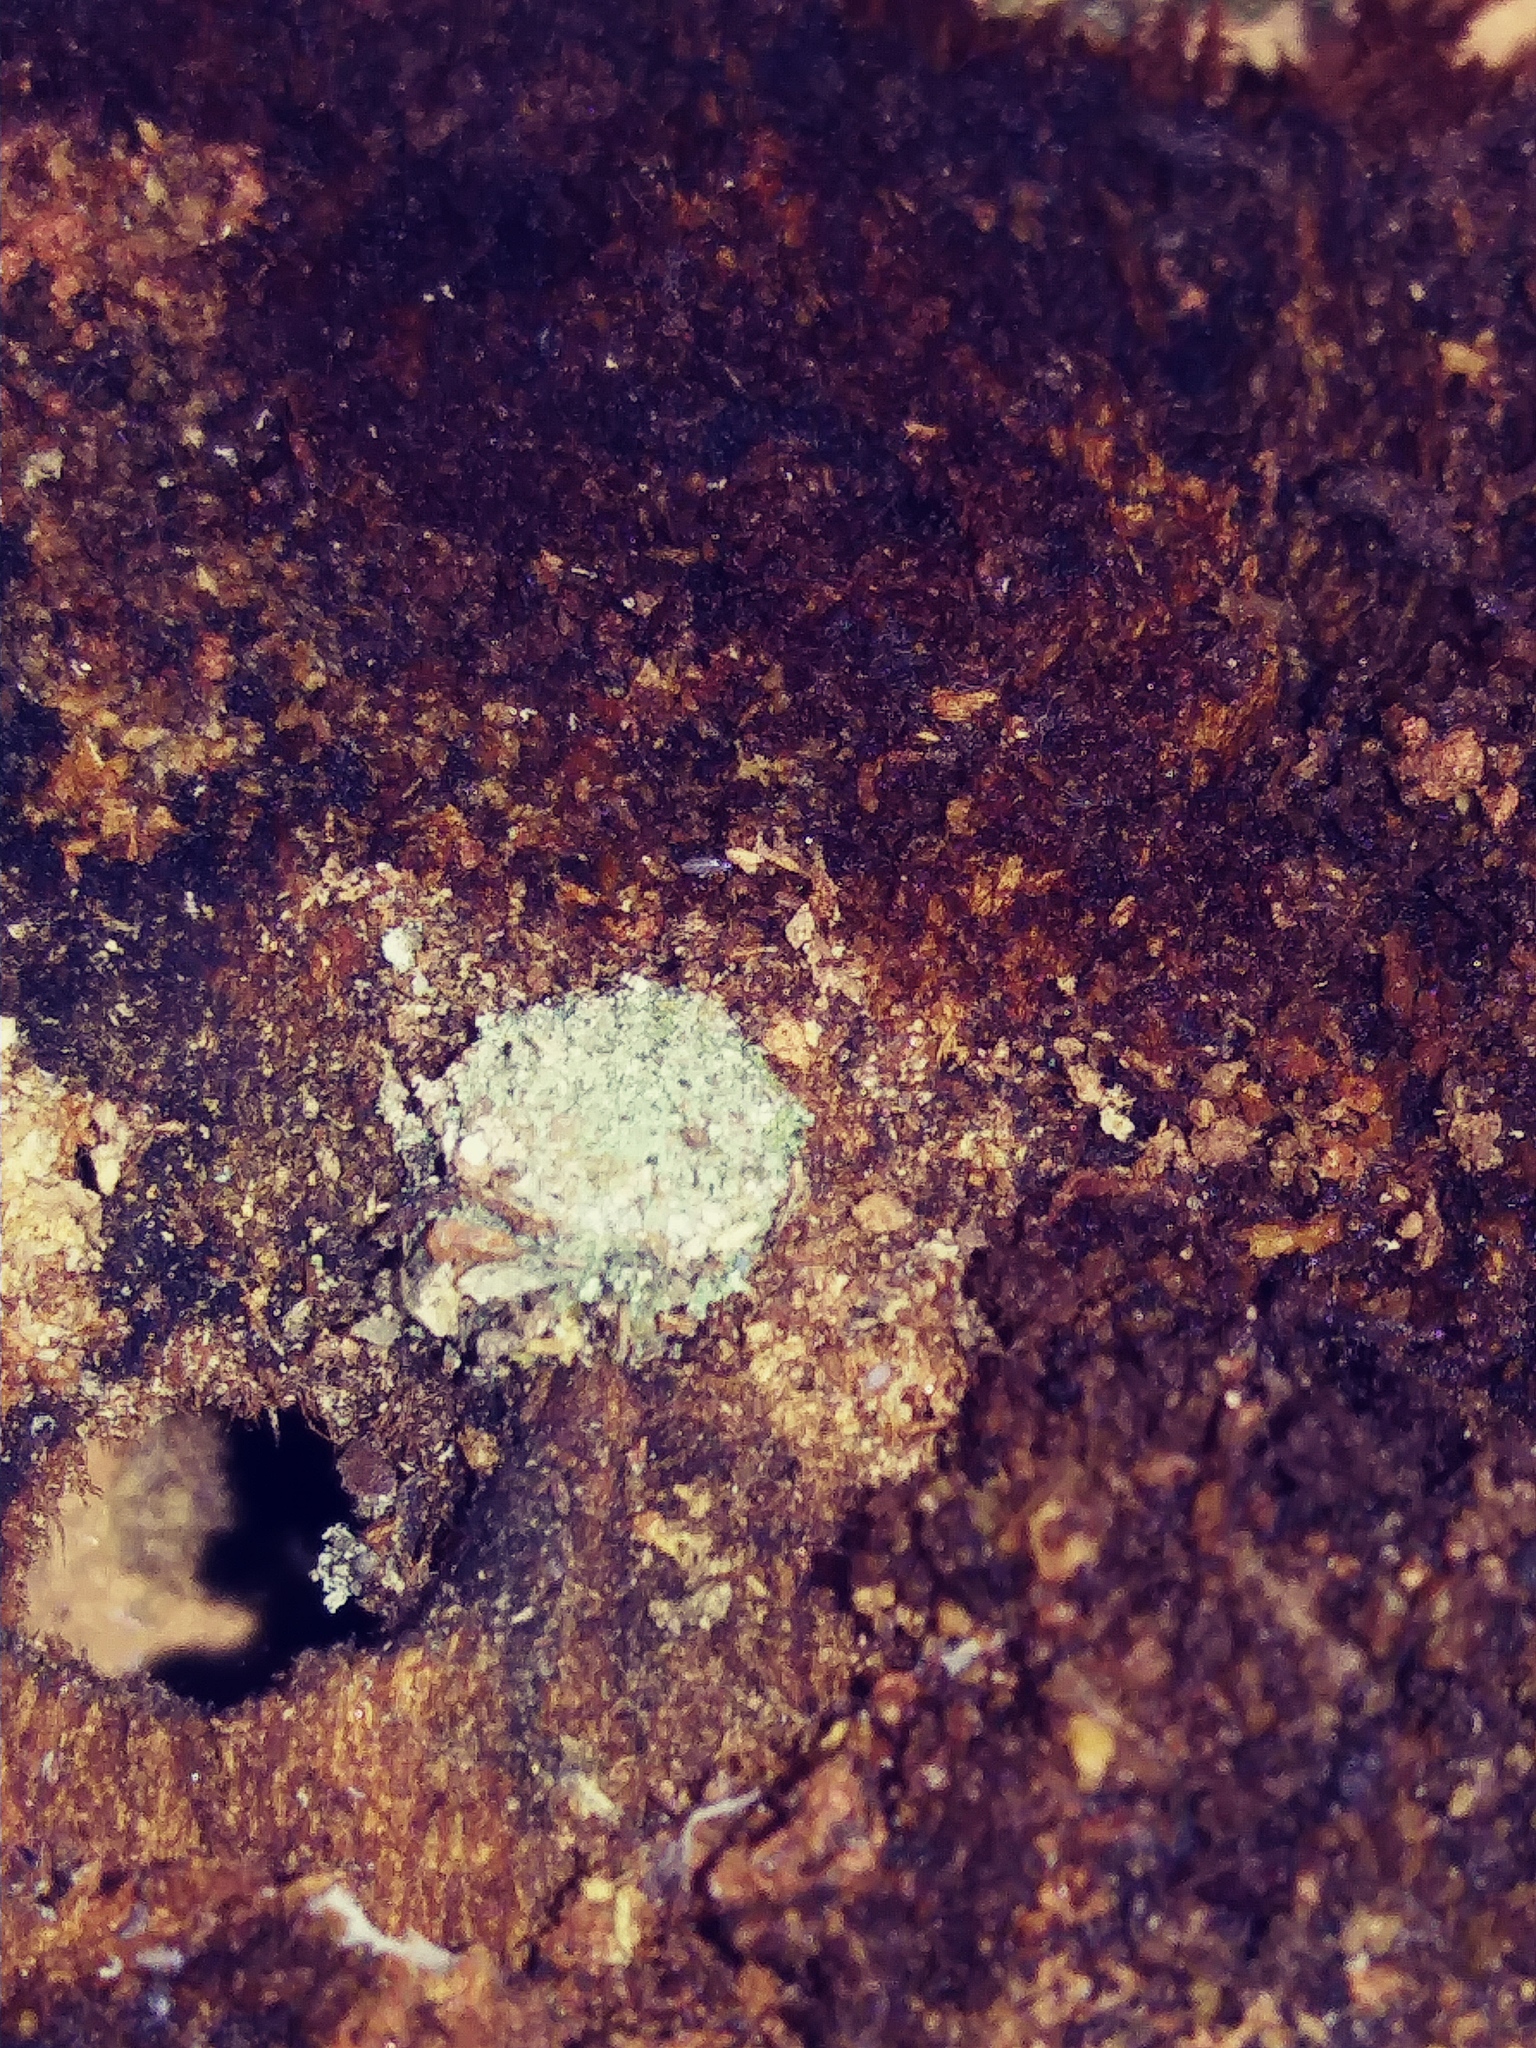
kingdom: Animalia
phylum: Arthropoda
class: Insecta
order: Neuroptera
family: Chrysopidae
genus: Leucochrysa
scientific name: Leucochrysa pavida
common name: Lichen-carrying green lacewing
